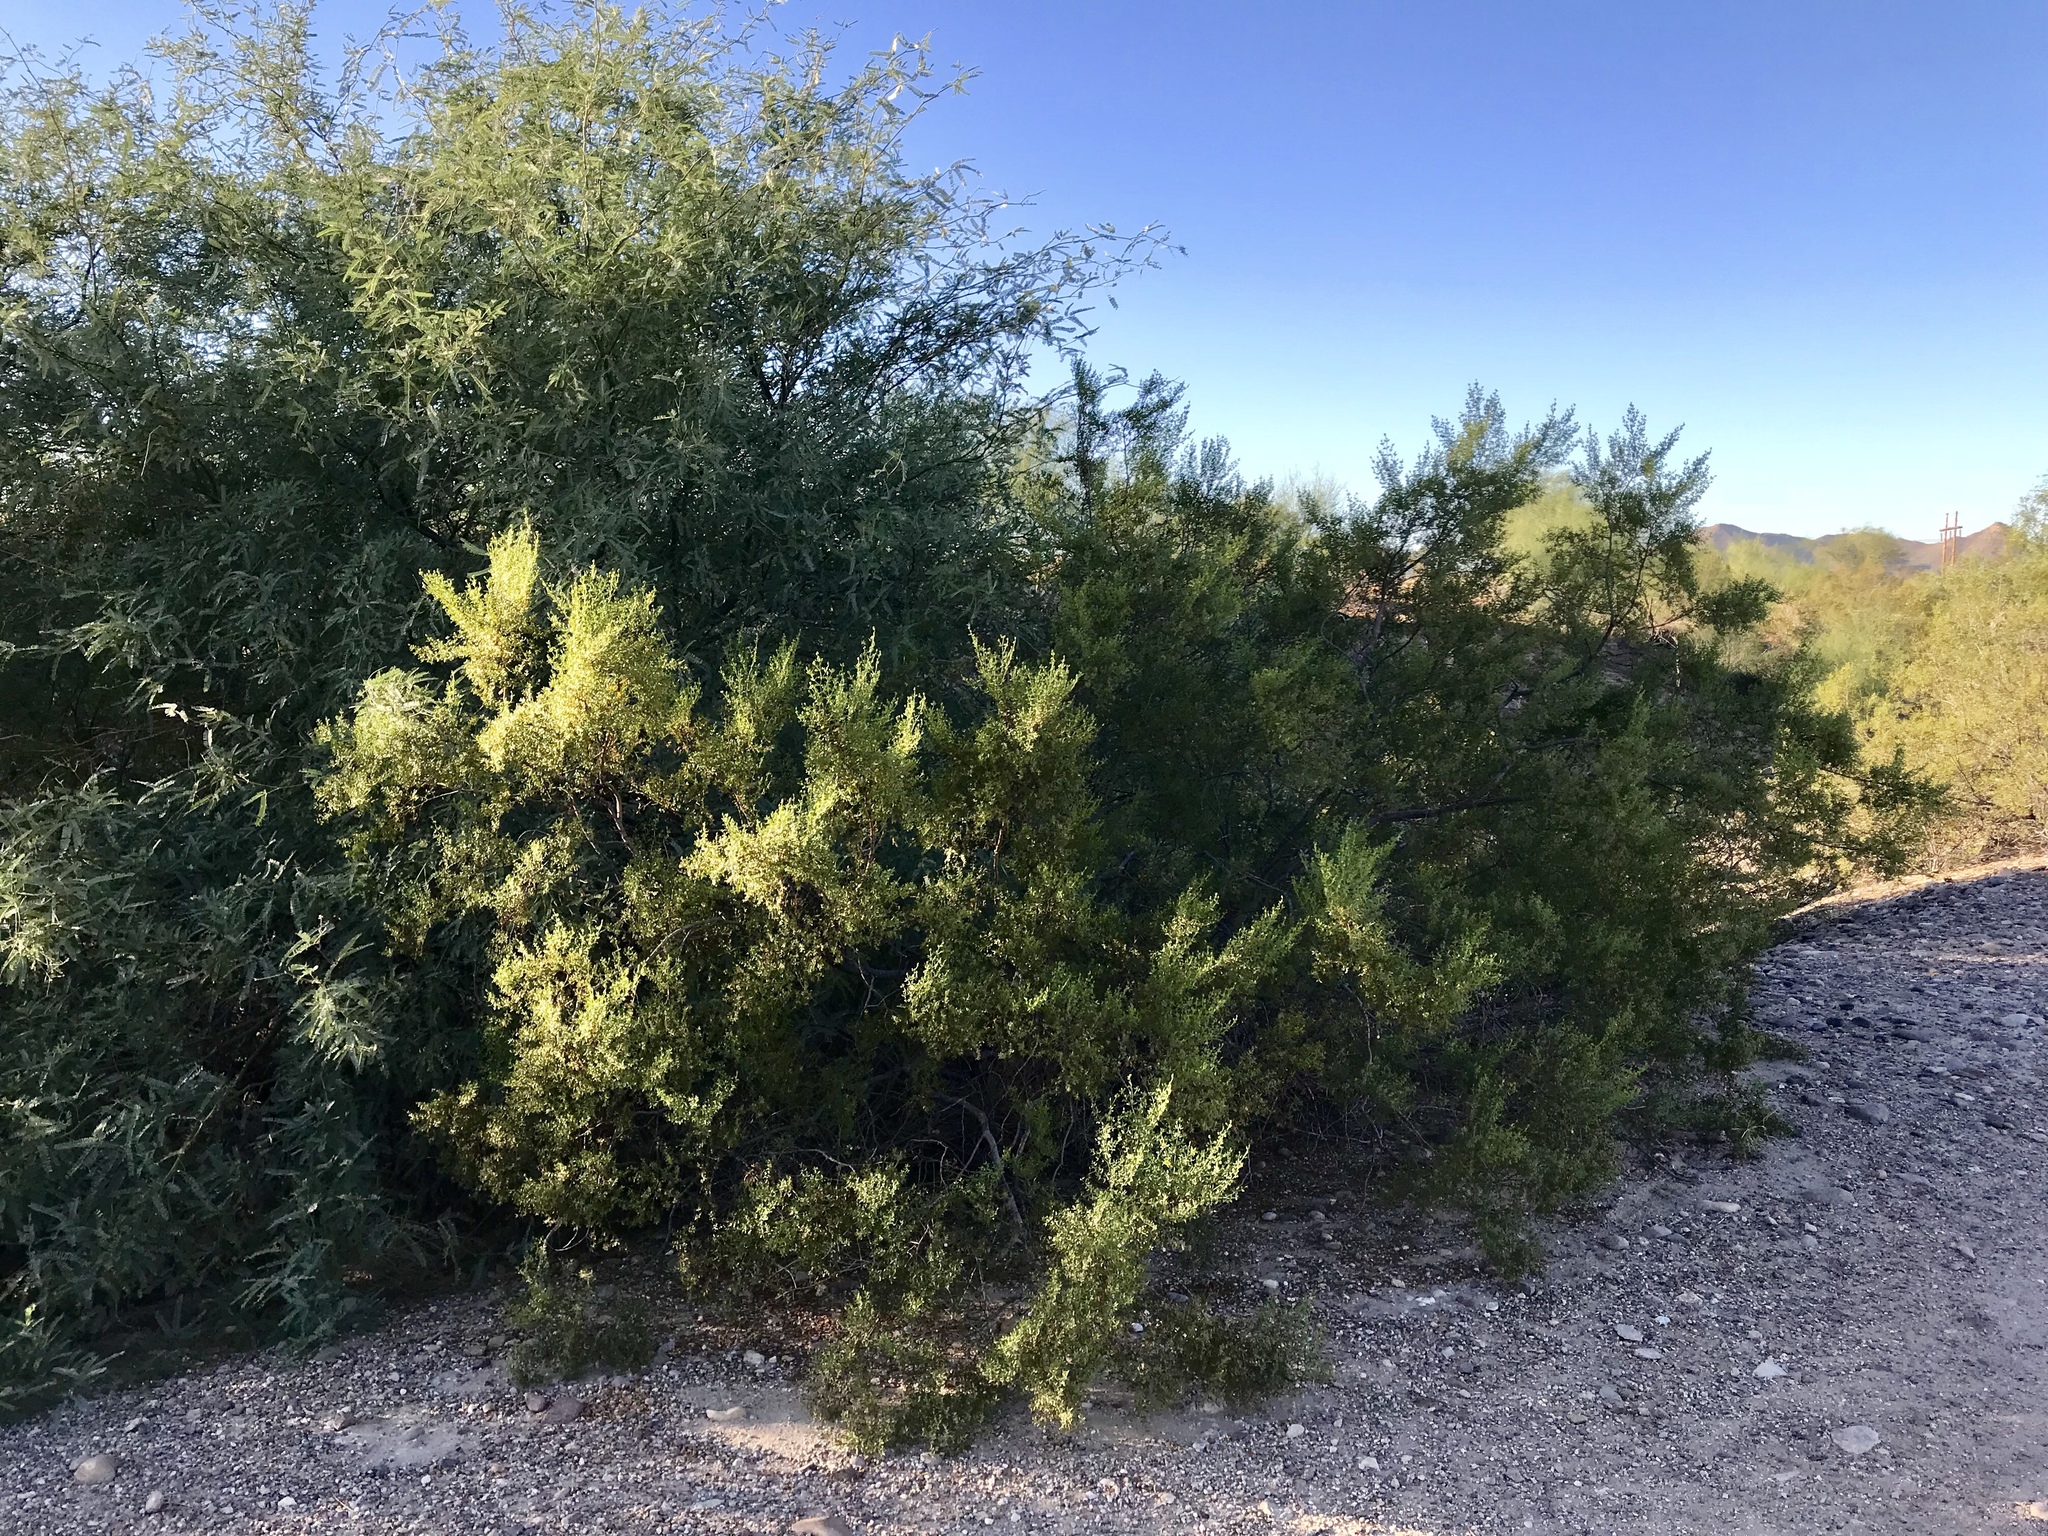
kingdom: Plantae
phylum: Tracheophyta
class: Magnoliopsida
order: Zygophyllales
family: Zygophyllaceae
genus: Larrea
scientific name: Larrea tridentata
